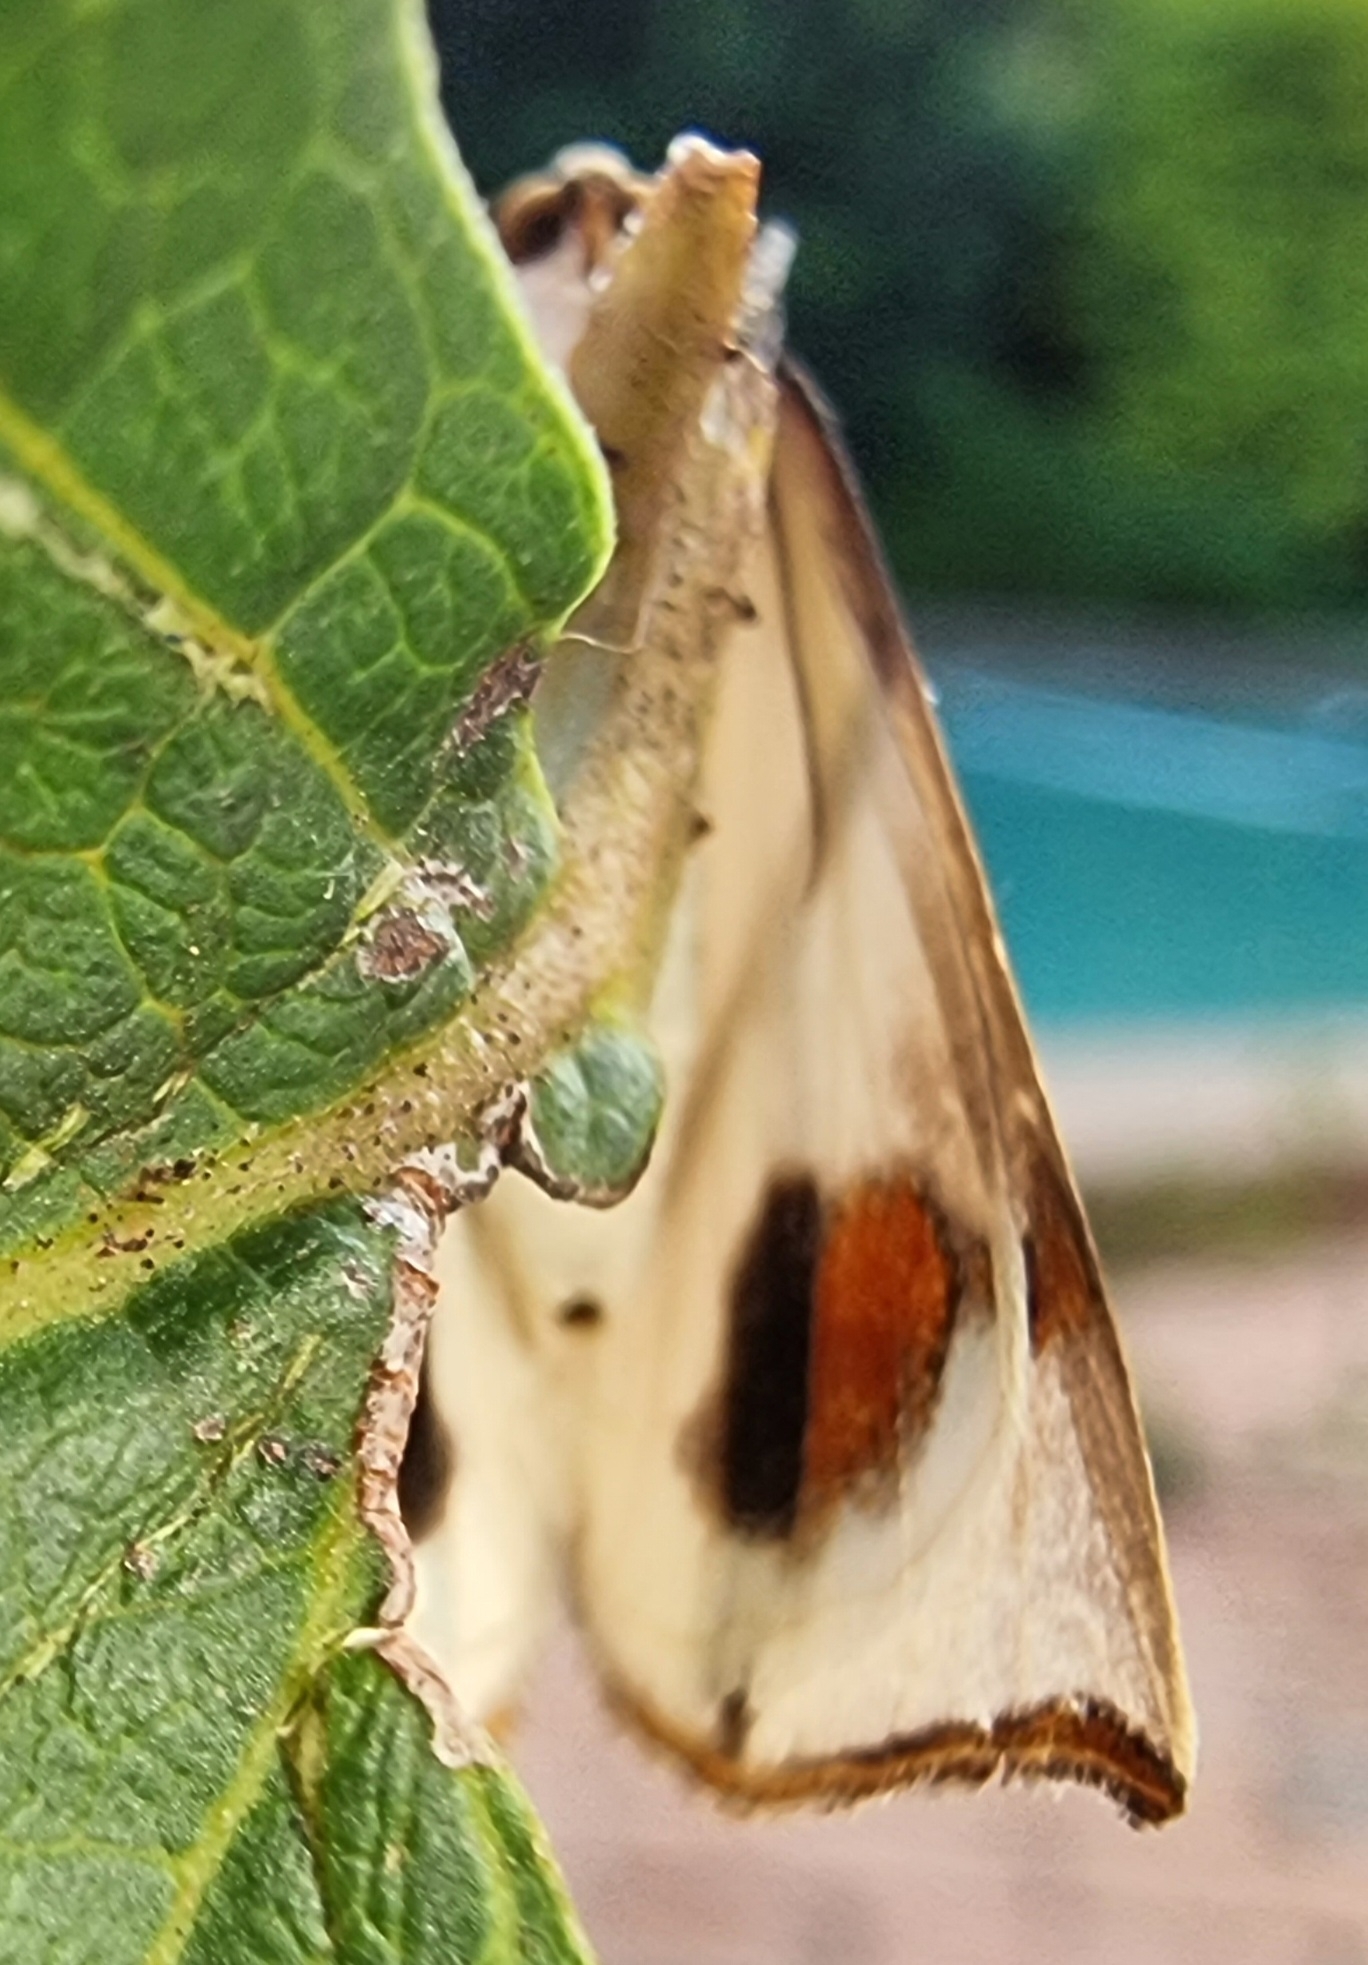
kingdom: Animalia
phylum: Arthropoda
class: Insecta
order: Lepidoptera
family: Geometridae
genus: Thalaina
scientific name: Thalaina clara
